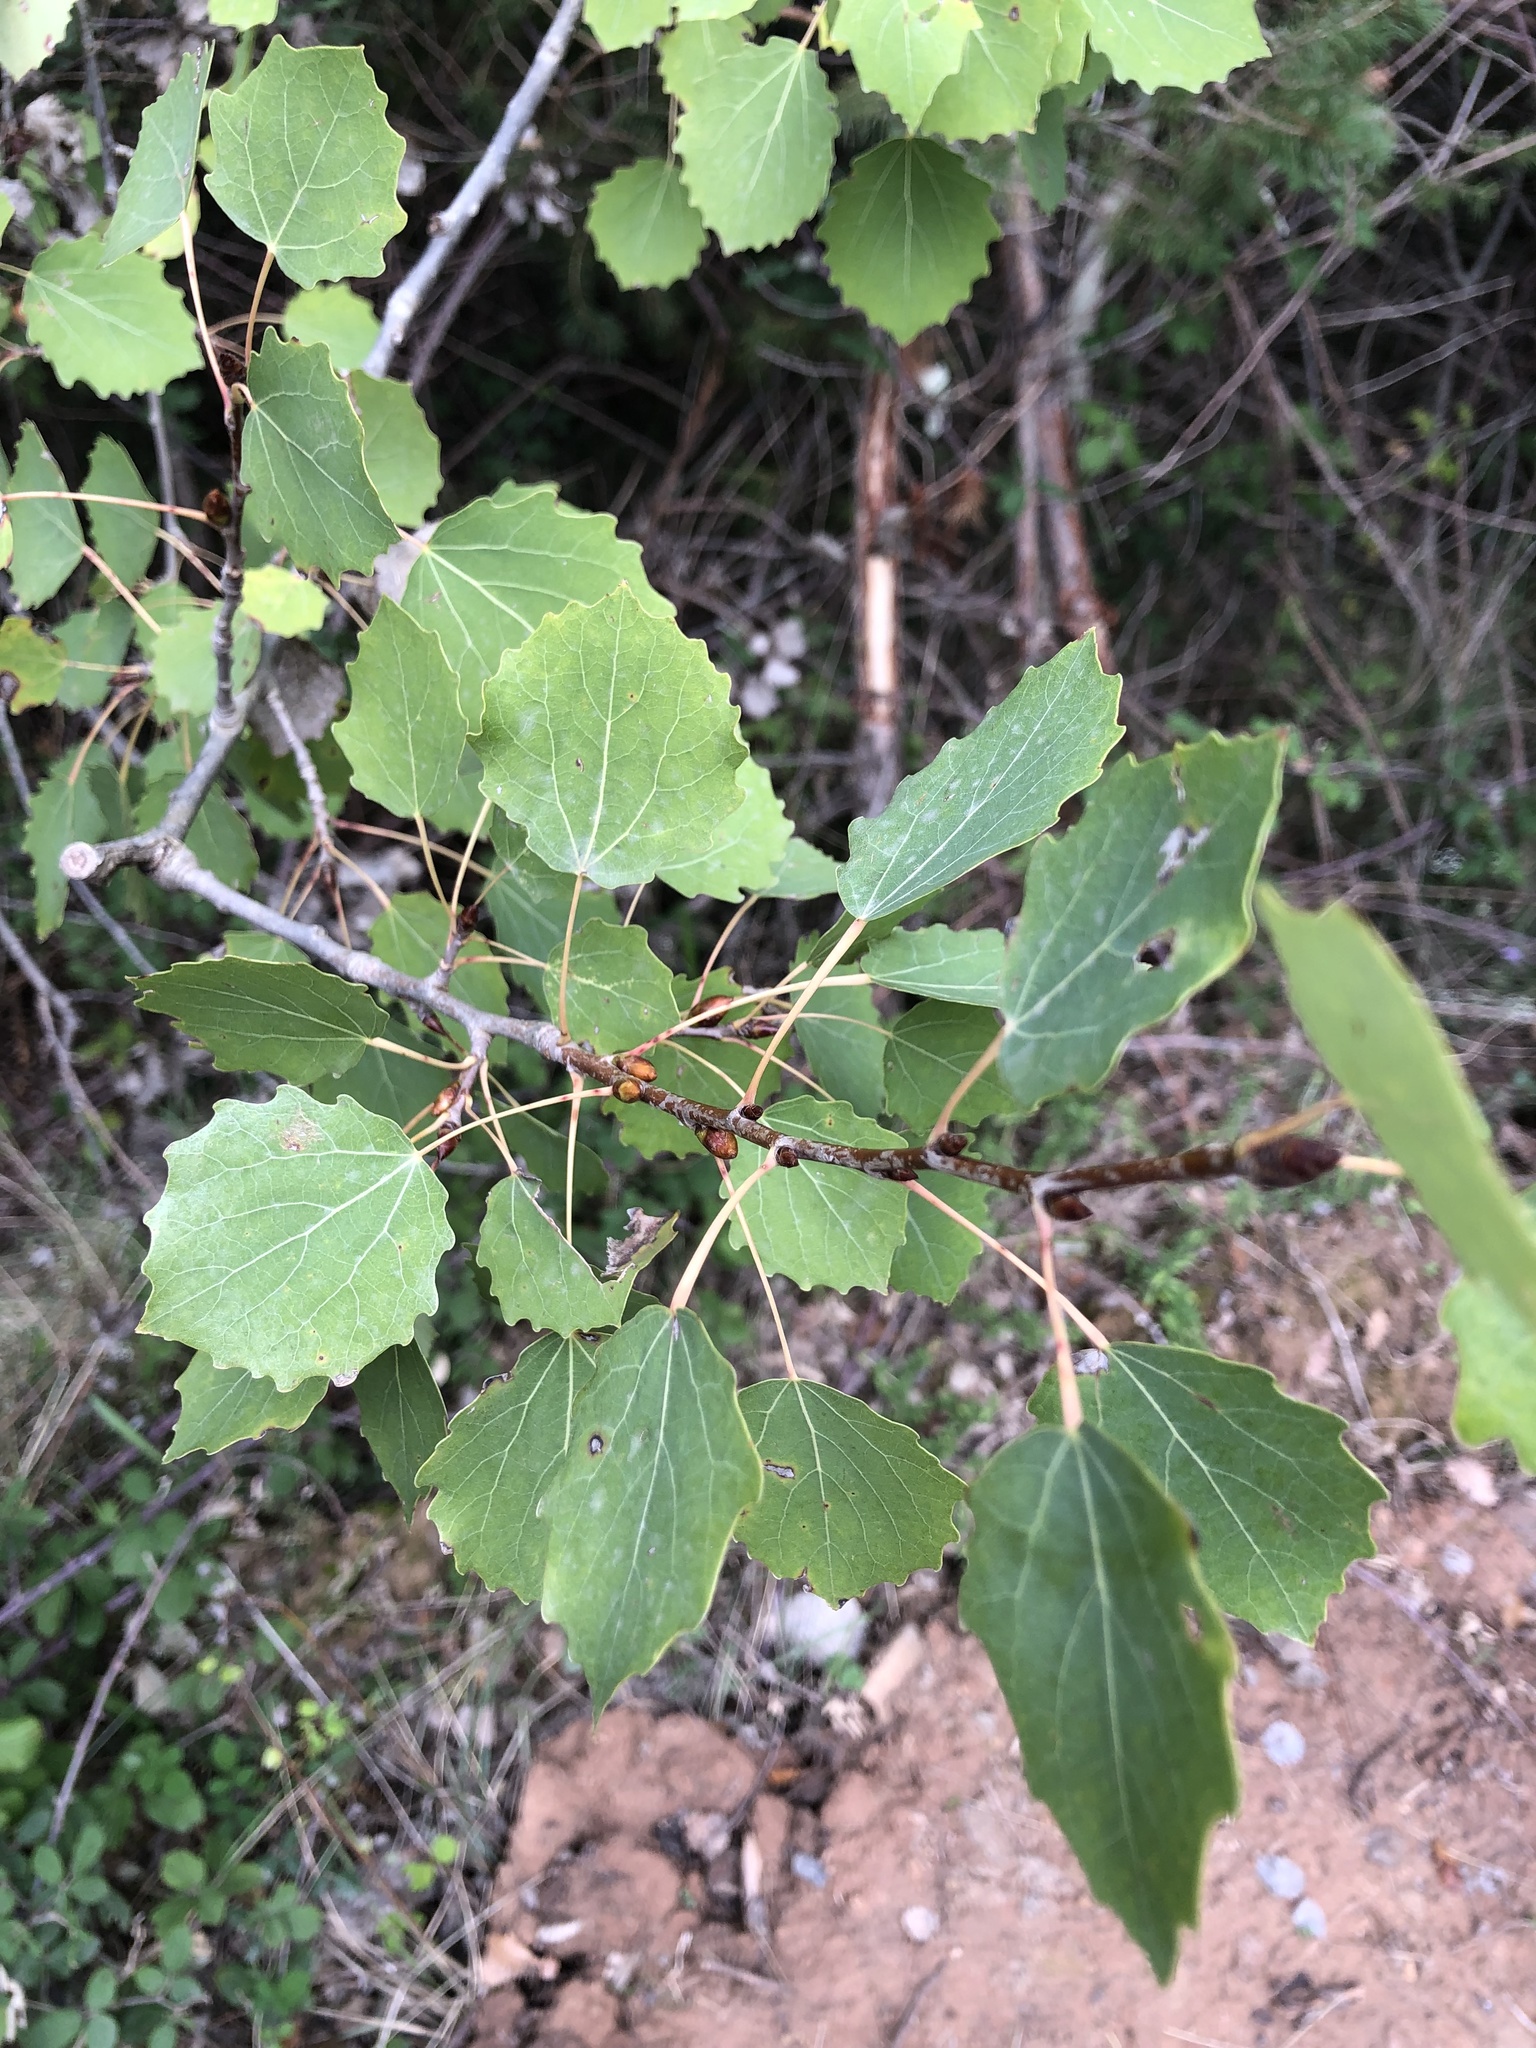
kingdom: Plantae
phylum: Tracheophyta
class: Magnoliopsida
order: Malpighiales
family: Salicaceae
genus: Populus
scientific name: Populus tremula
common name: European aspen
